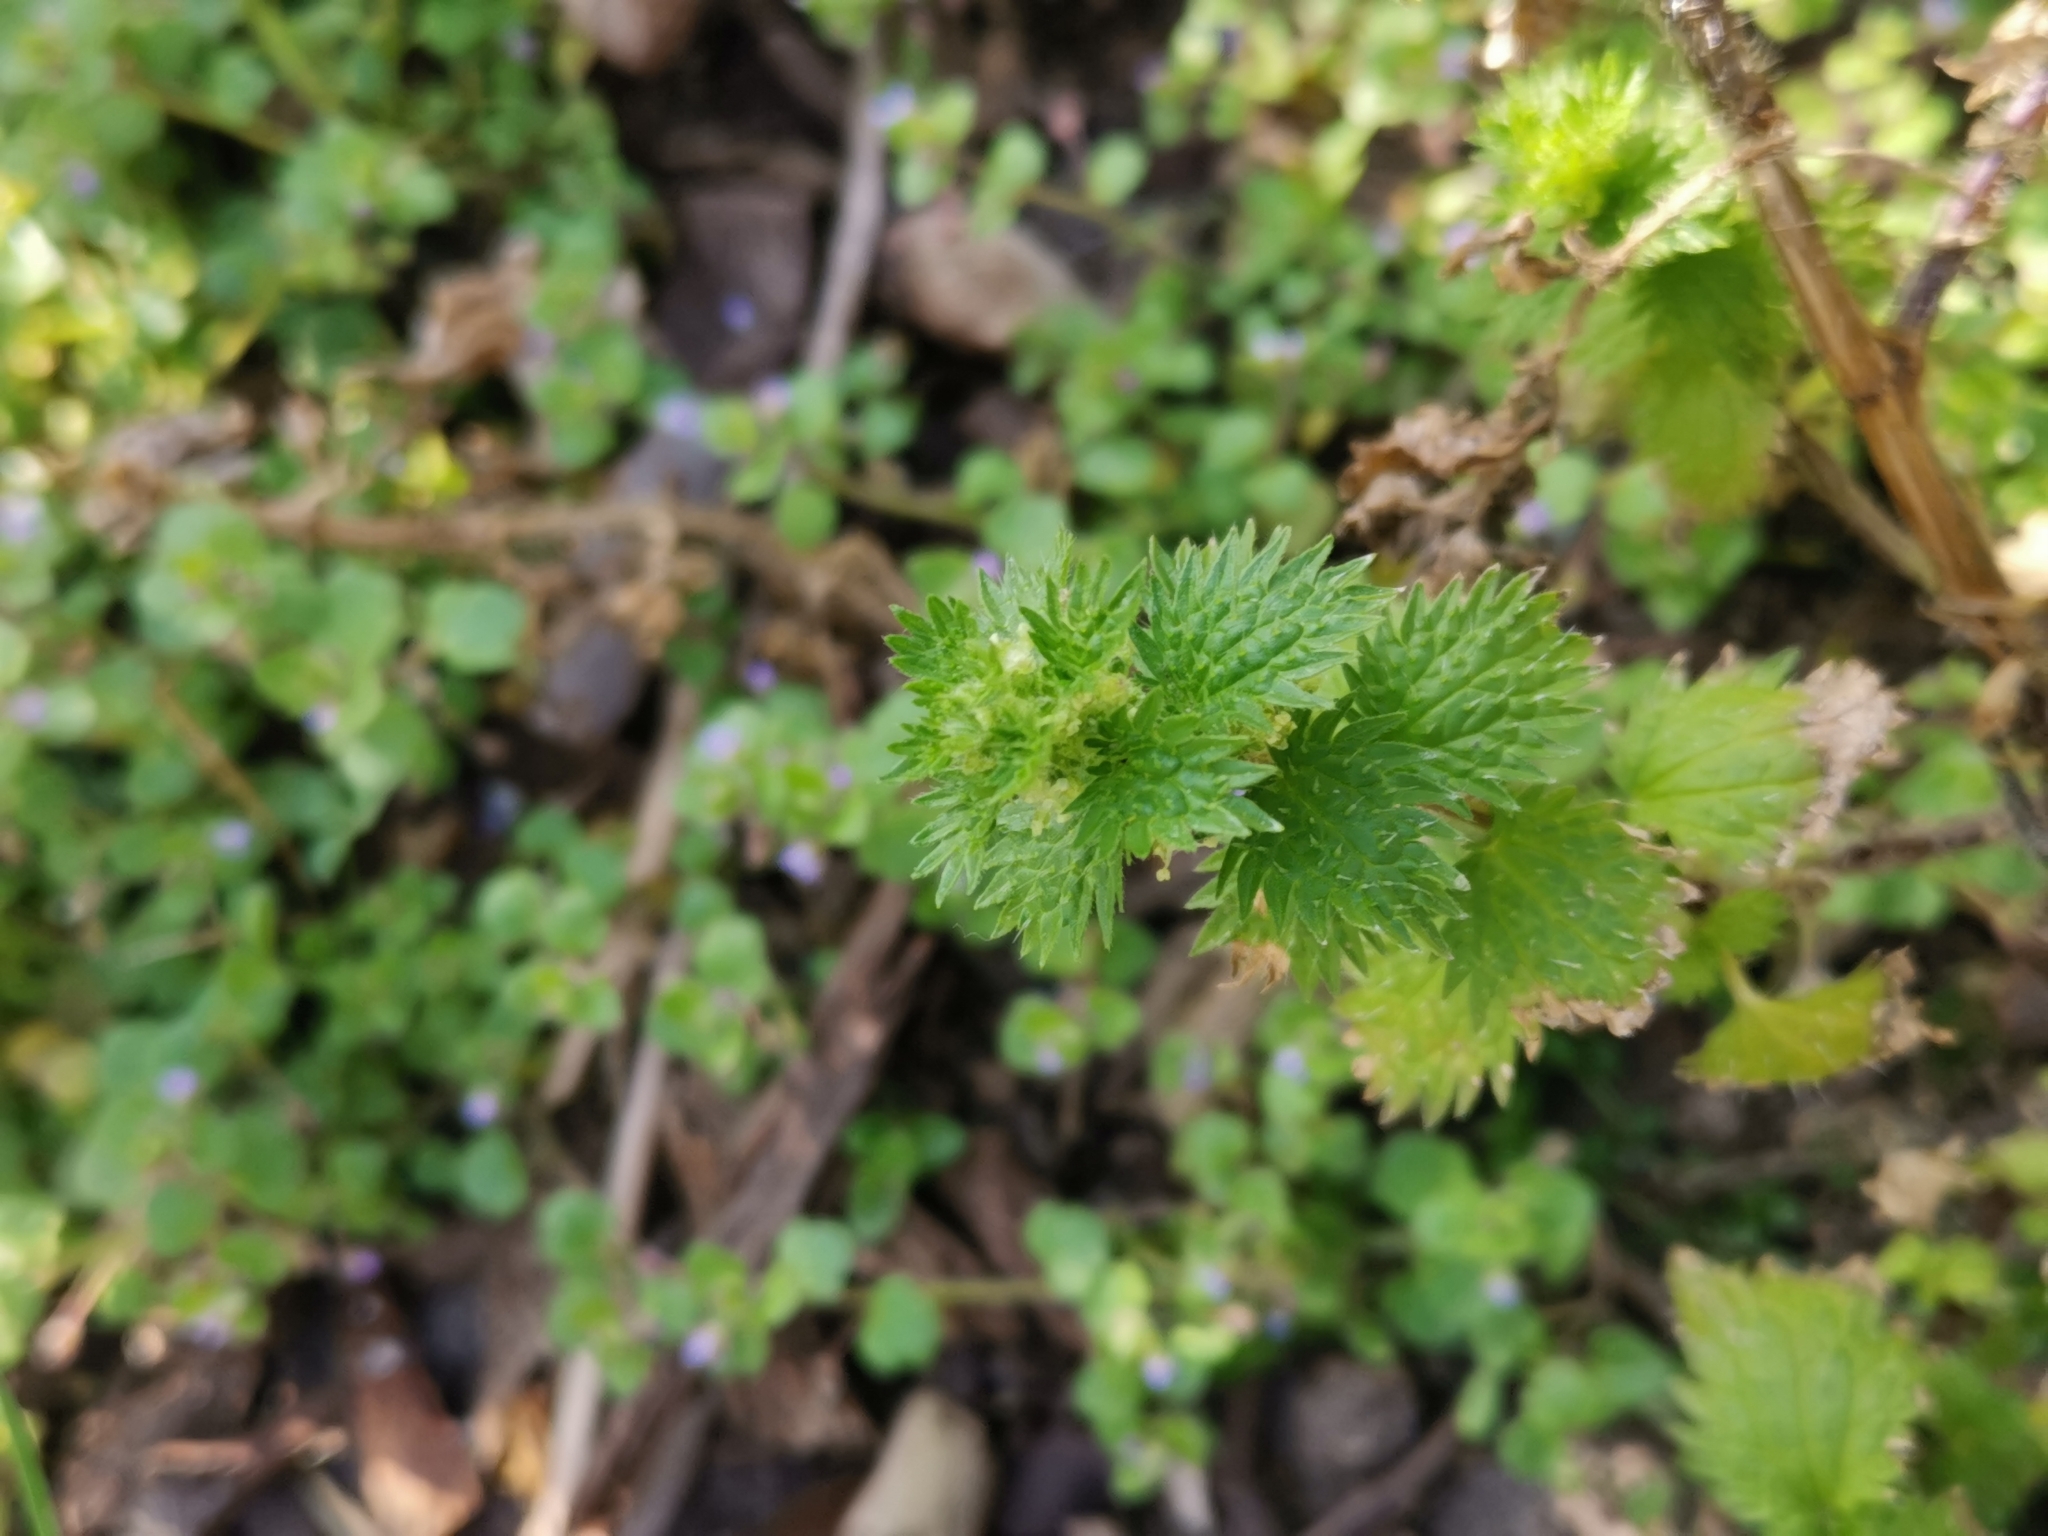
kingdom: Plantae
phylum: Tracheophyta
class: Magnoliopsida
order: Rosales
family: Urticaceae
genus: Urtica
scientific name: Urtica urens
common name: Dwarf nettle
